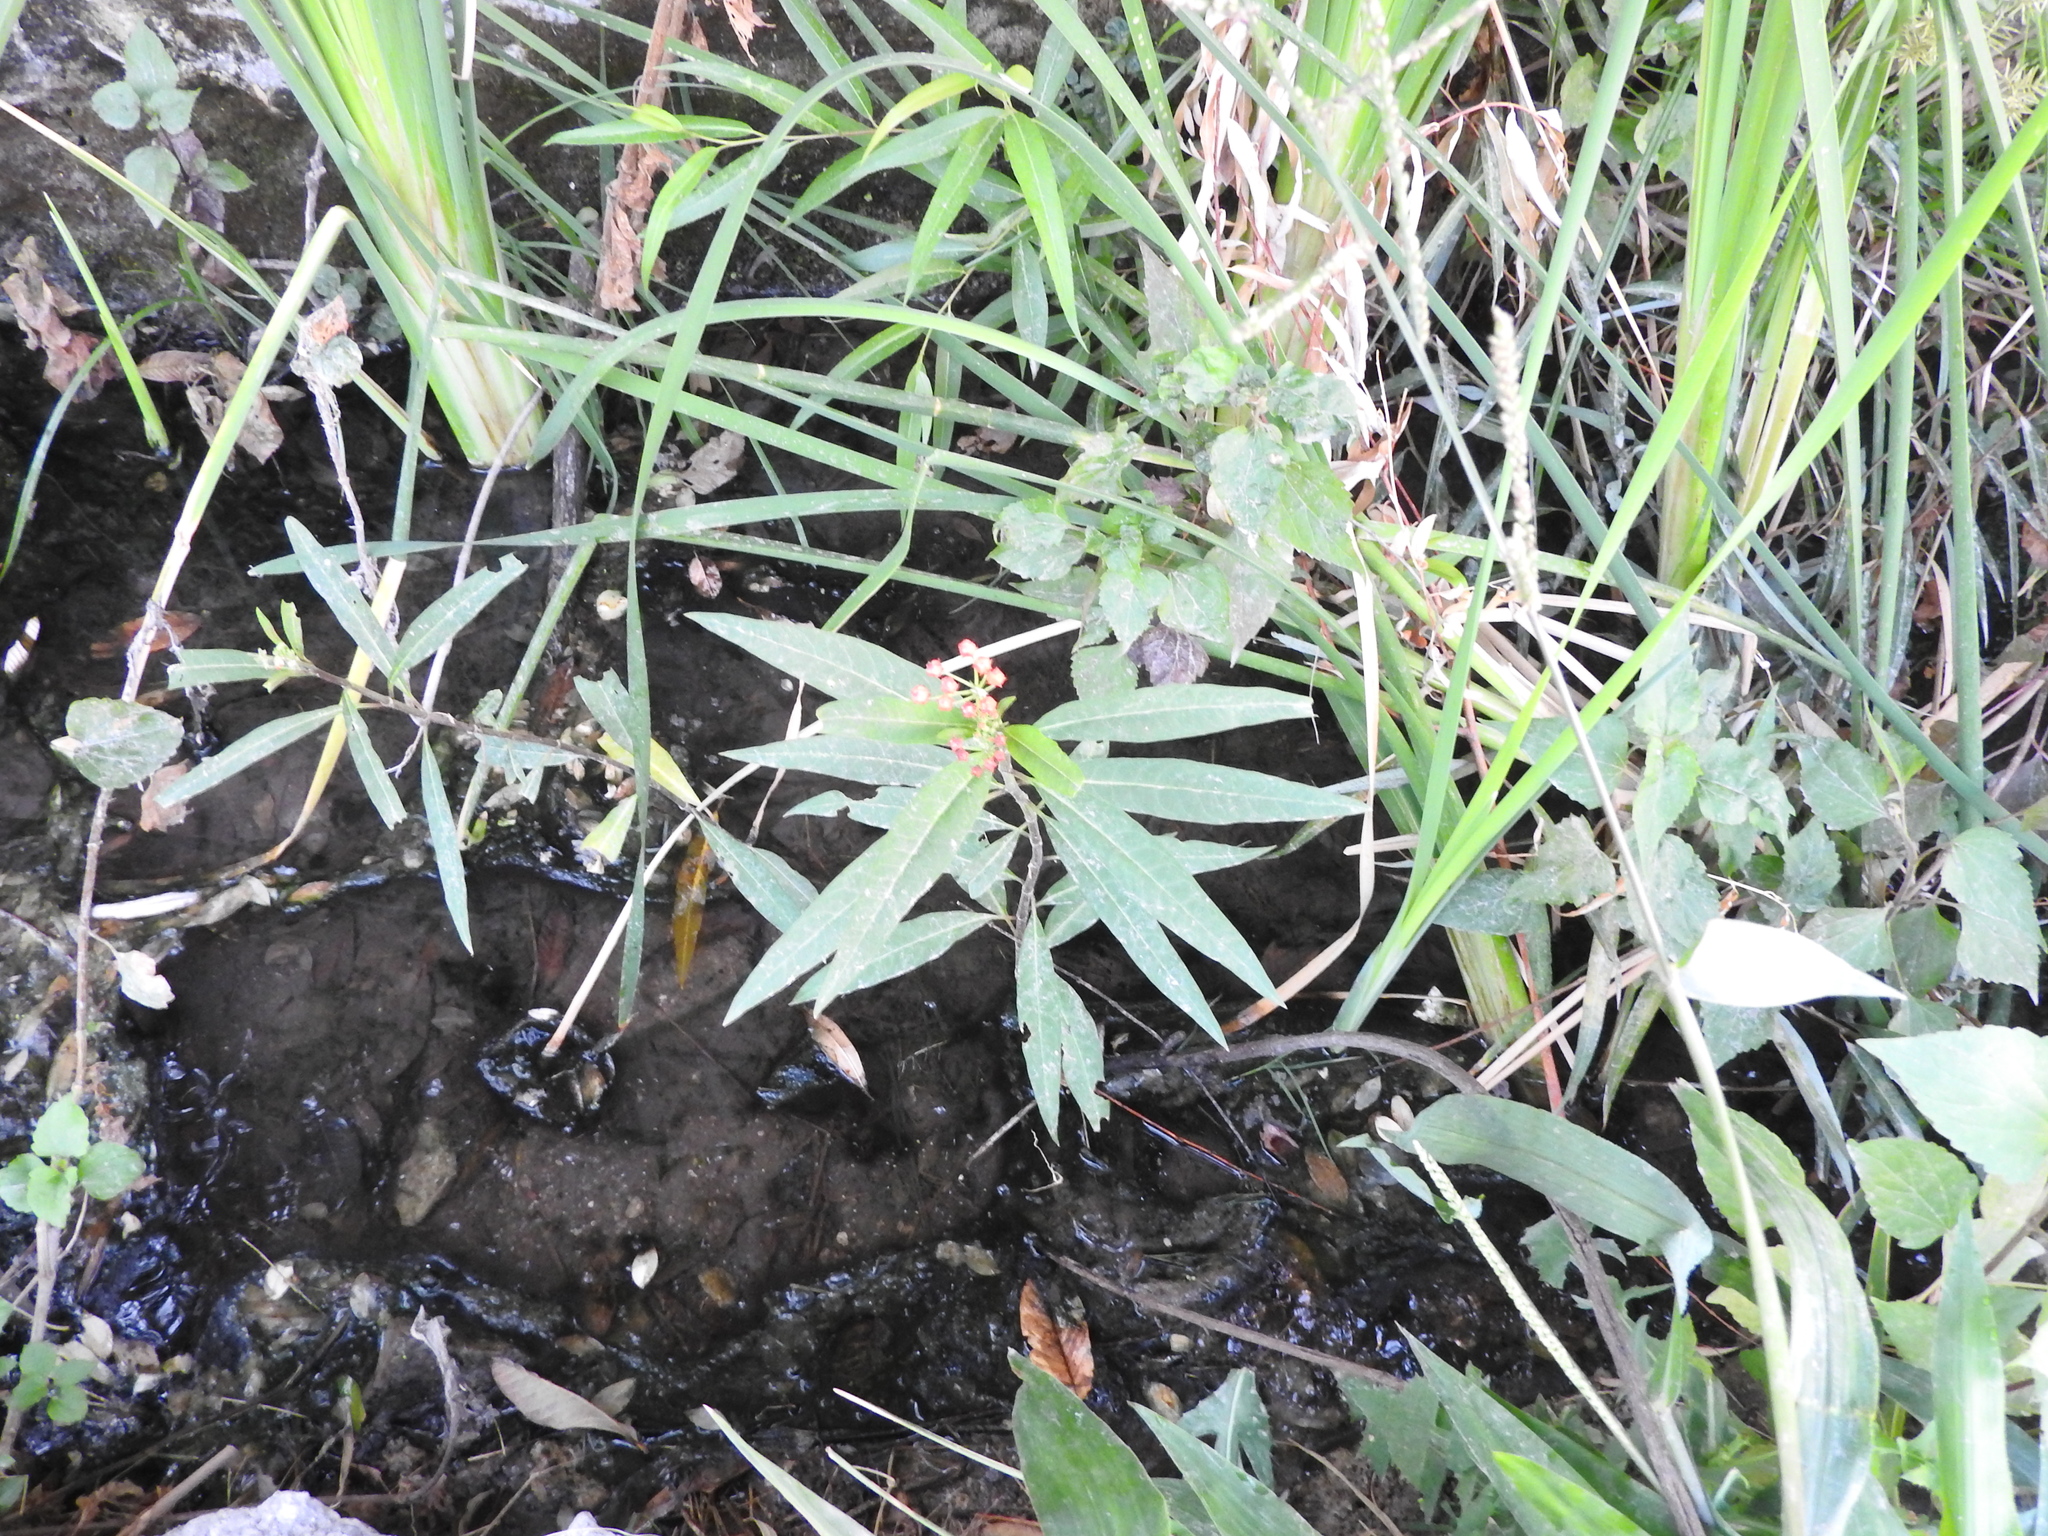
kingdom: Plantae
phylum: Tracheophyta
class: Magnoliopsida
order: Gentianales
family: Apocynaceae
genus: Asclepias
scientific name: Asclepias curassavica
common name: Bloodflower
